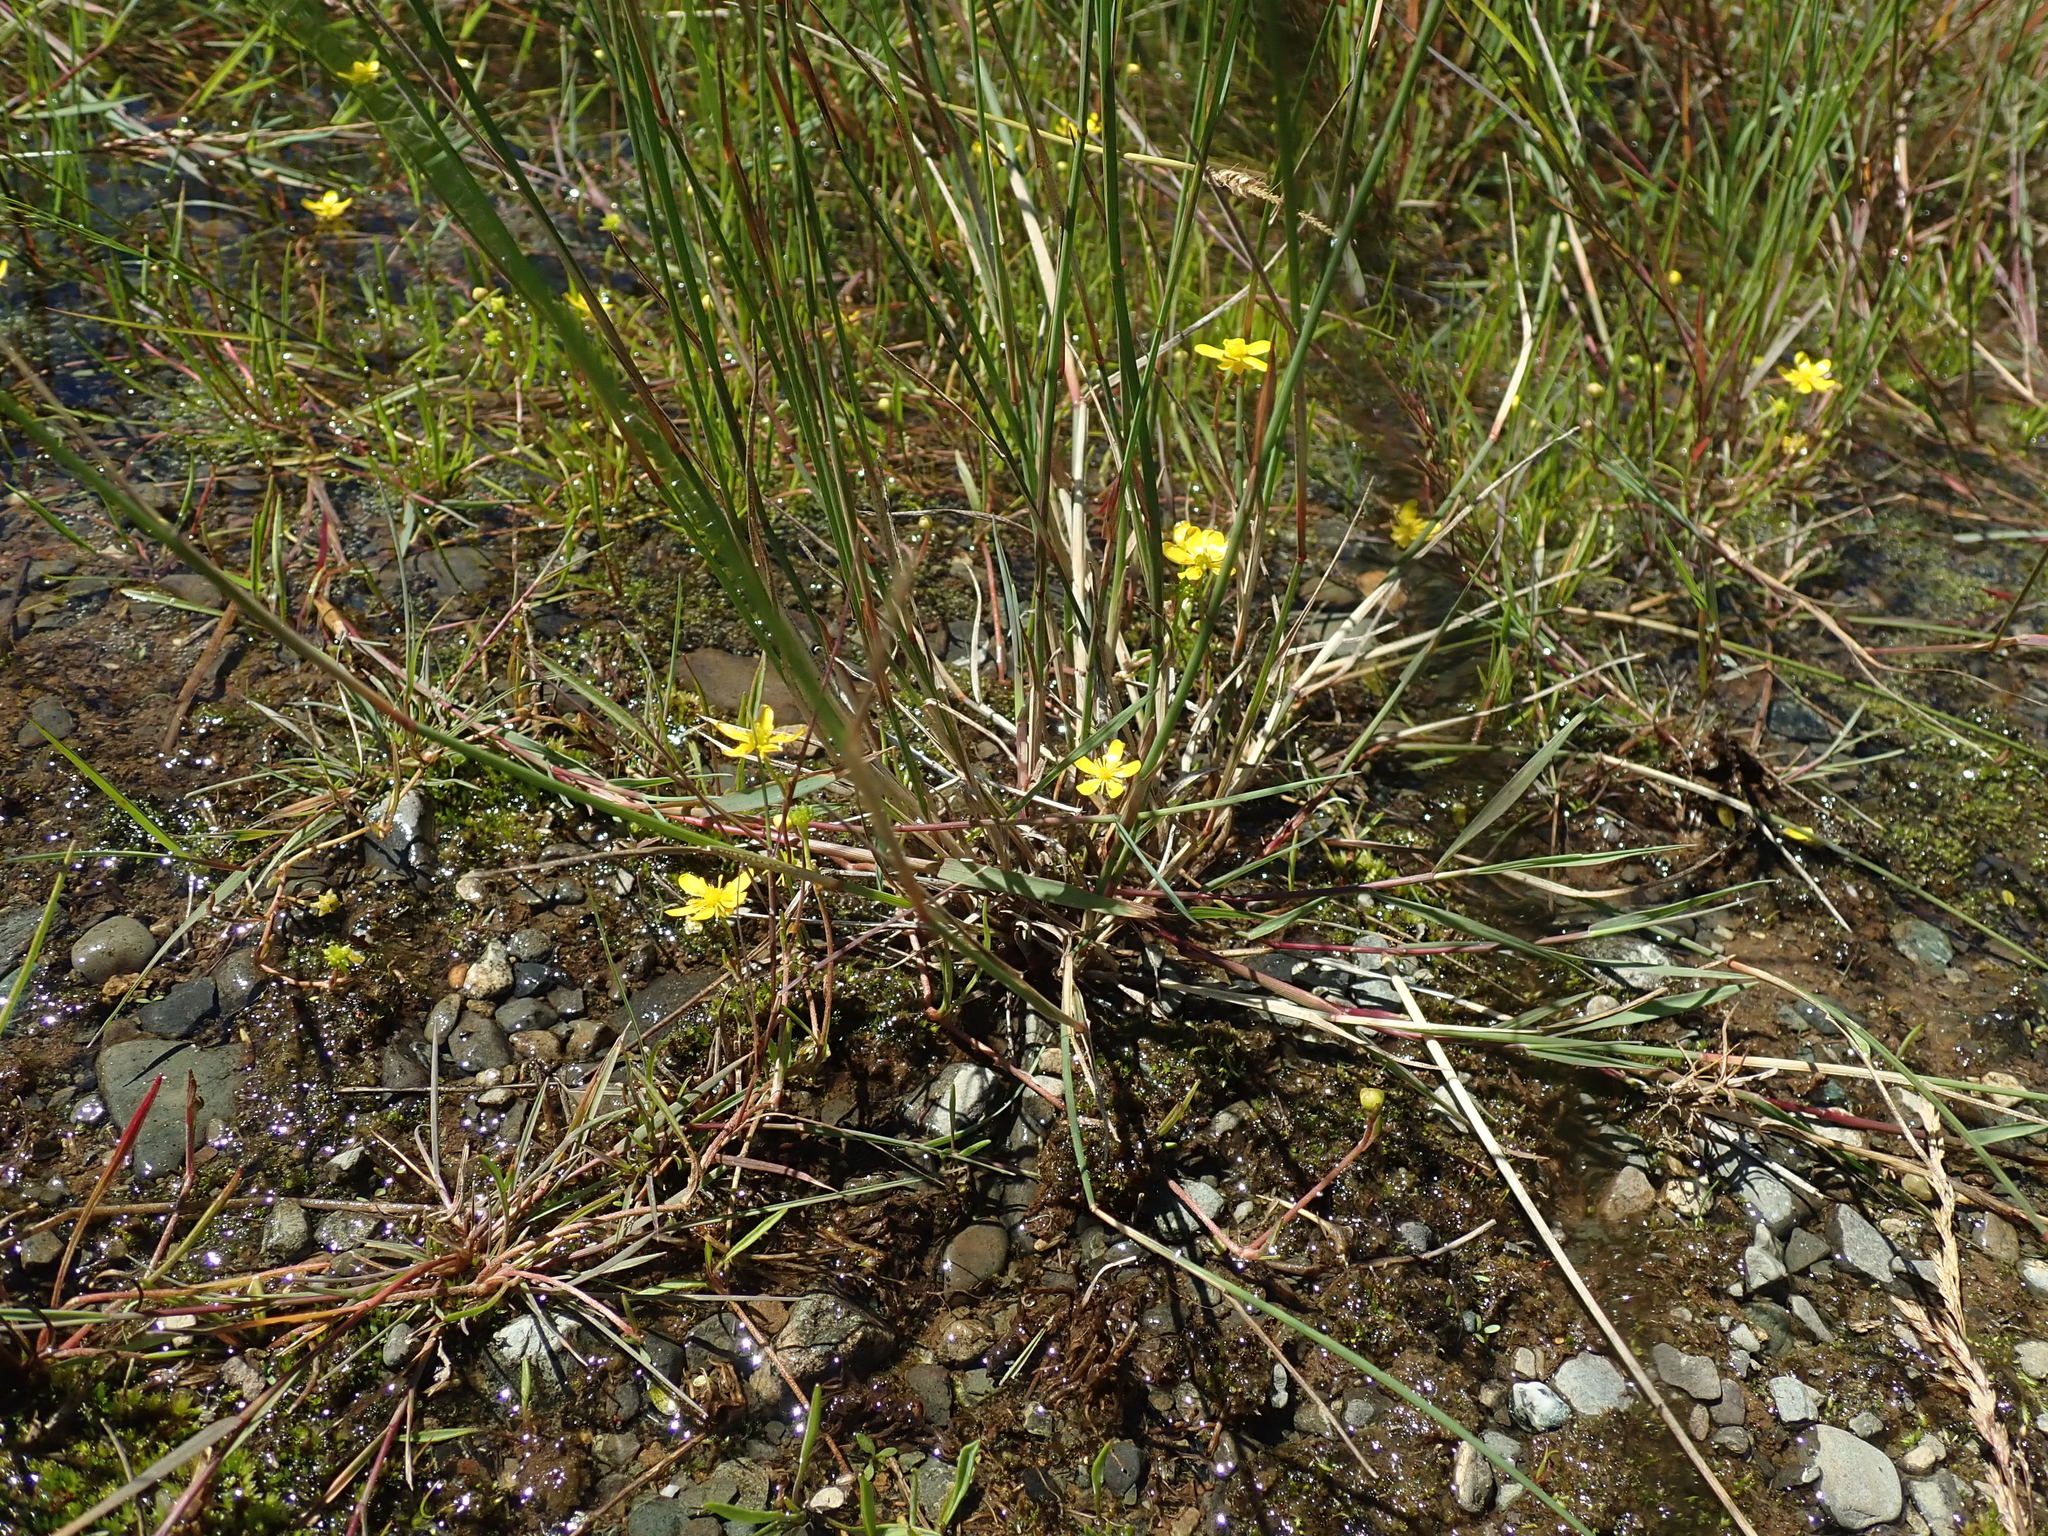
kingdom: Plantae
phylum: Tracheophyta
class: Magnoliopsida
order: Ranunculales
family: Ranunculaceae
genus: Ranunculus
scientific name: Ranunculus flammula
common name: Lesser spearwort
